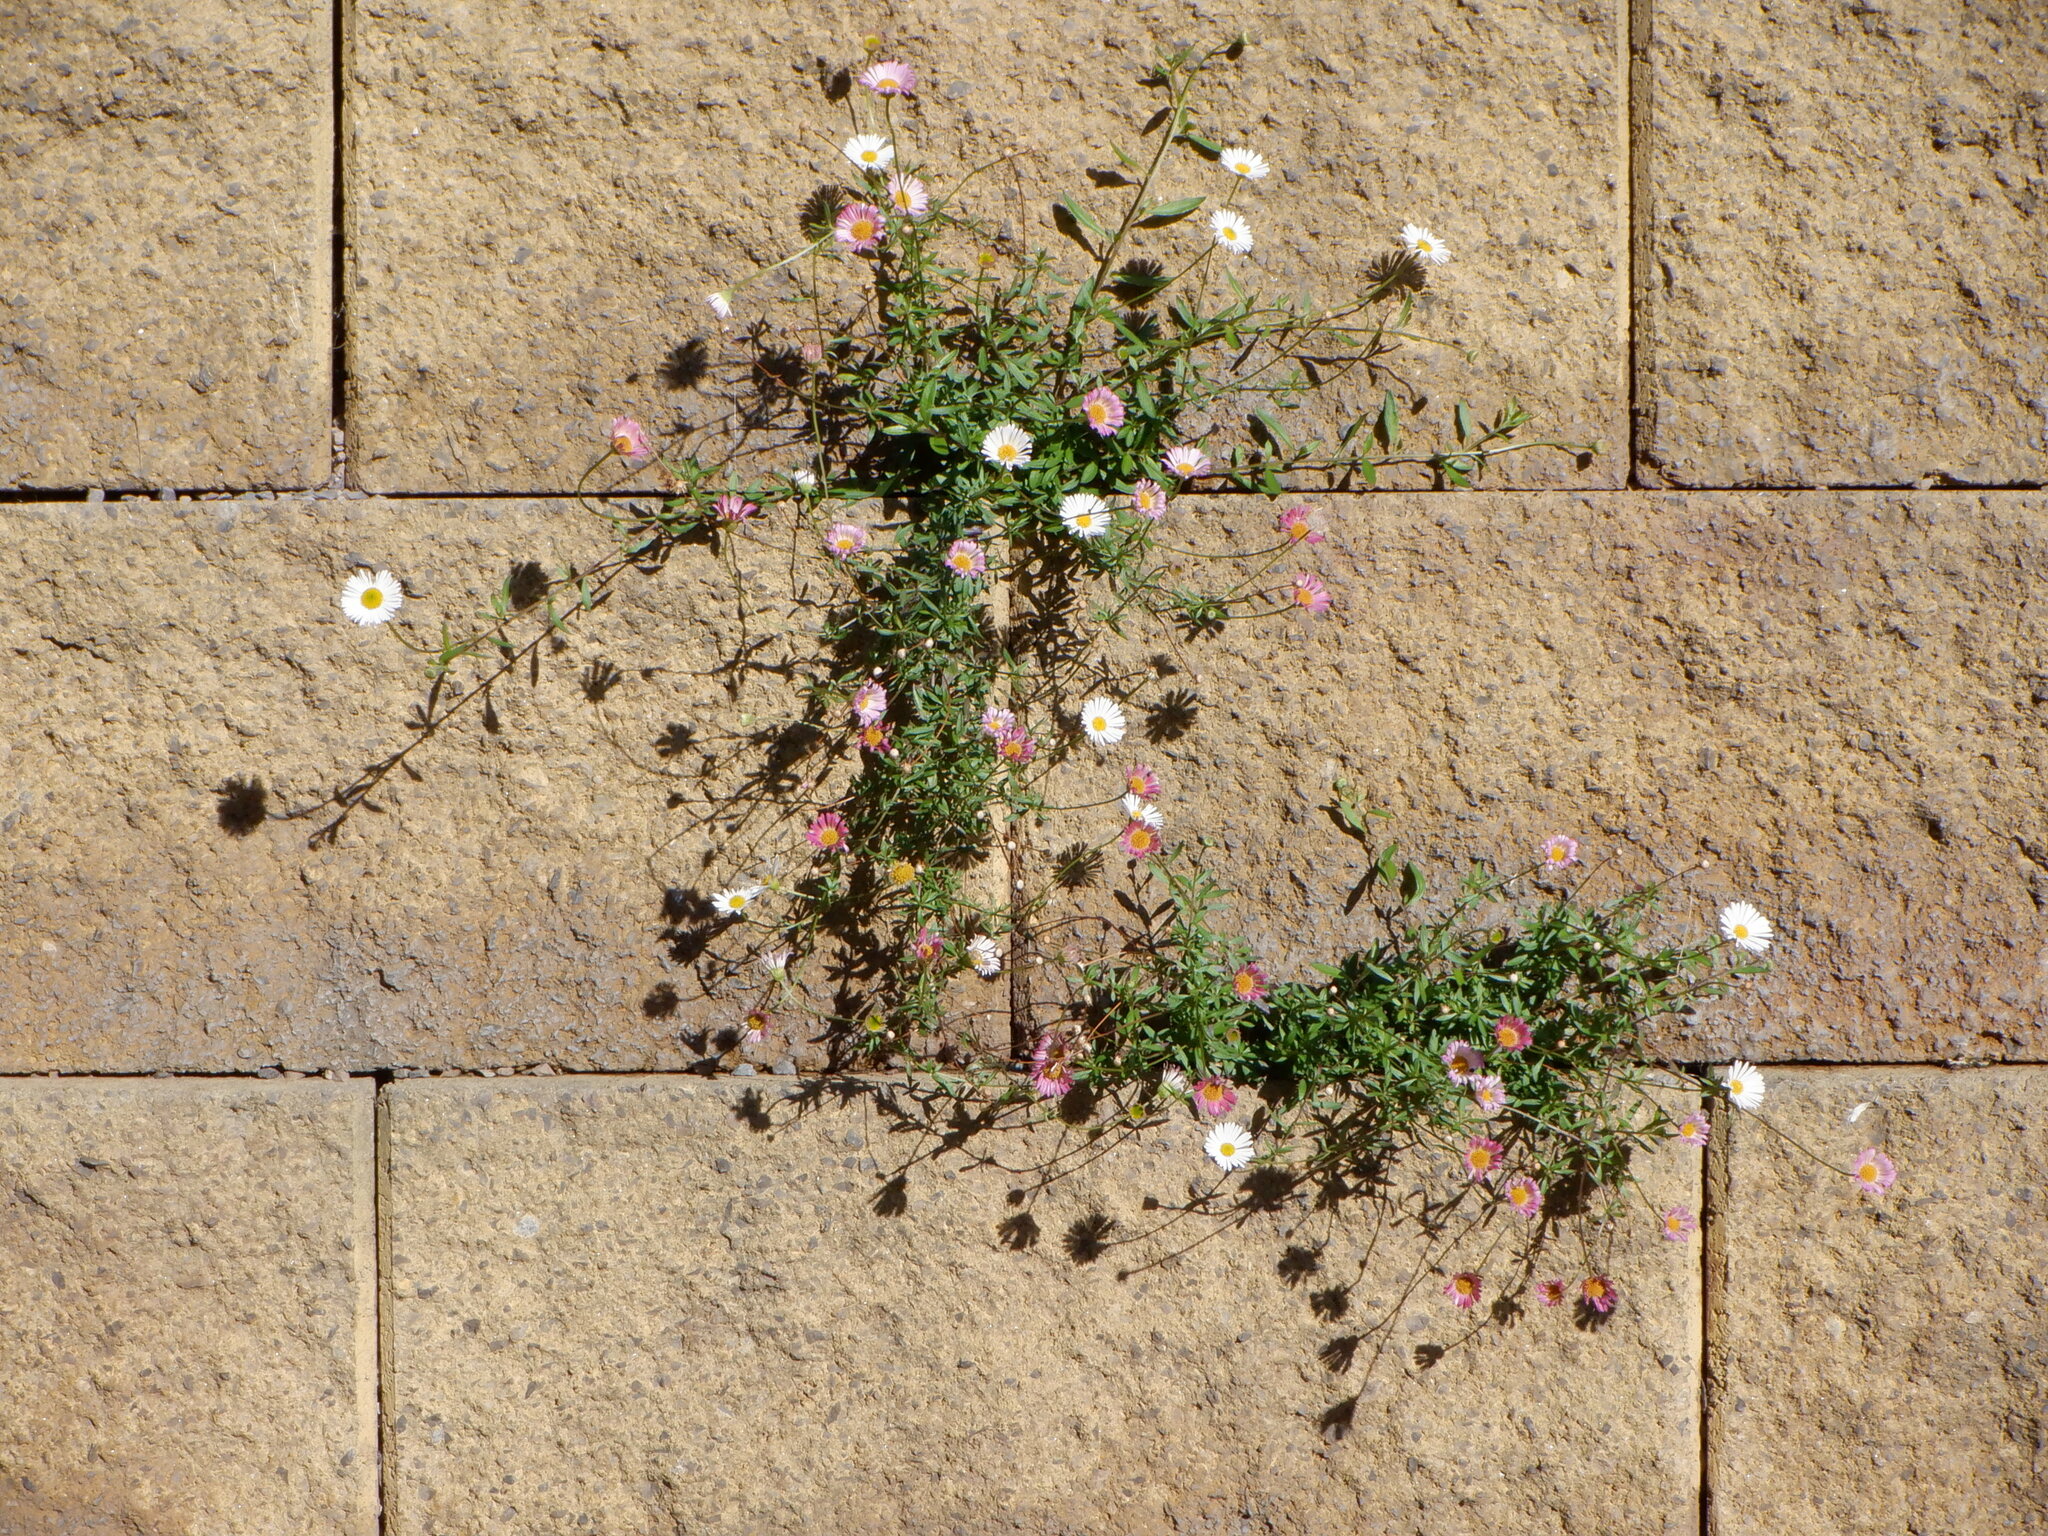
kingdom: Plantae
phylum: Tracheophyta
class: Magnoliopsida
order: Asterales
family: Asteraceae
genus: Erigeron
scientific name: Erigeron karvinskianus
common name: Mexican fleabane
